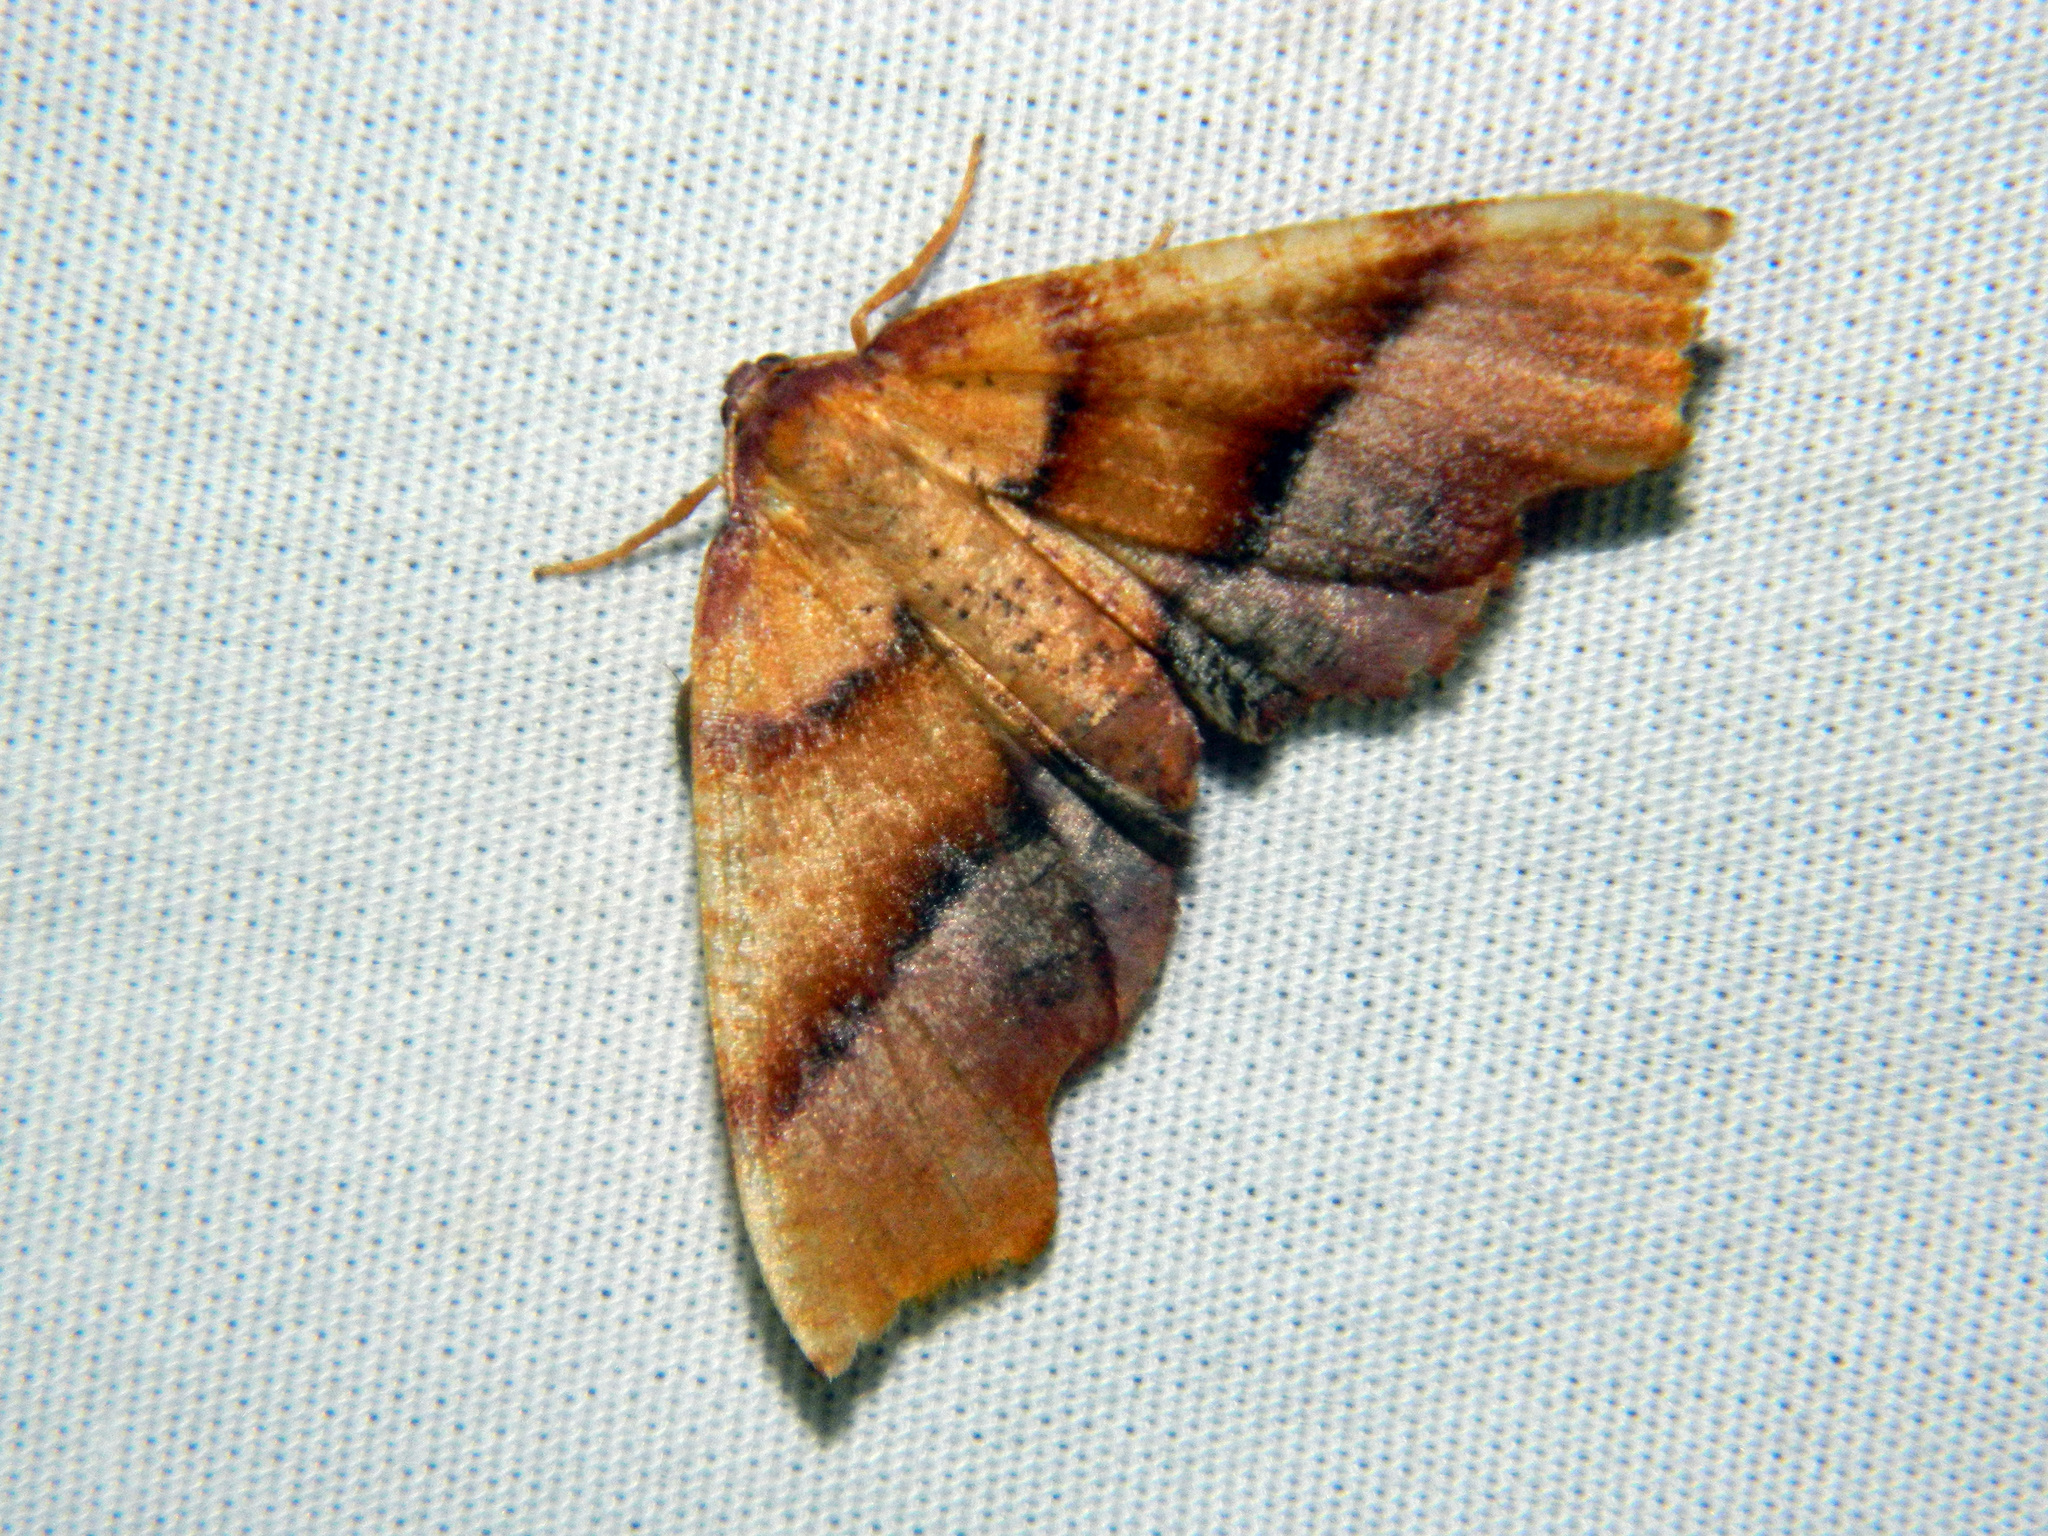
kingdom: Animalia
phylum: Arthropoda
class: Insecta
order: Lepidoptera
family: Geometridae
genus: Plagodis
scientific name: Plagodis phlogosaria
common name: Straight-lined plagodis
